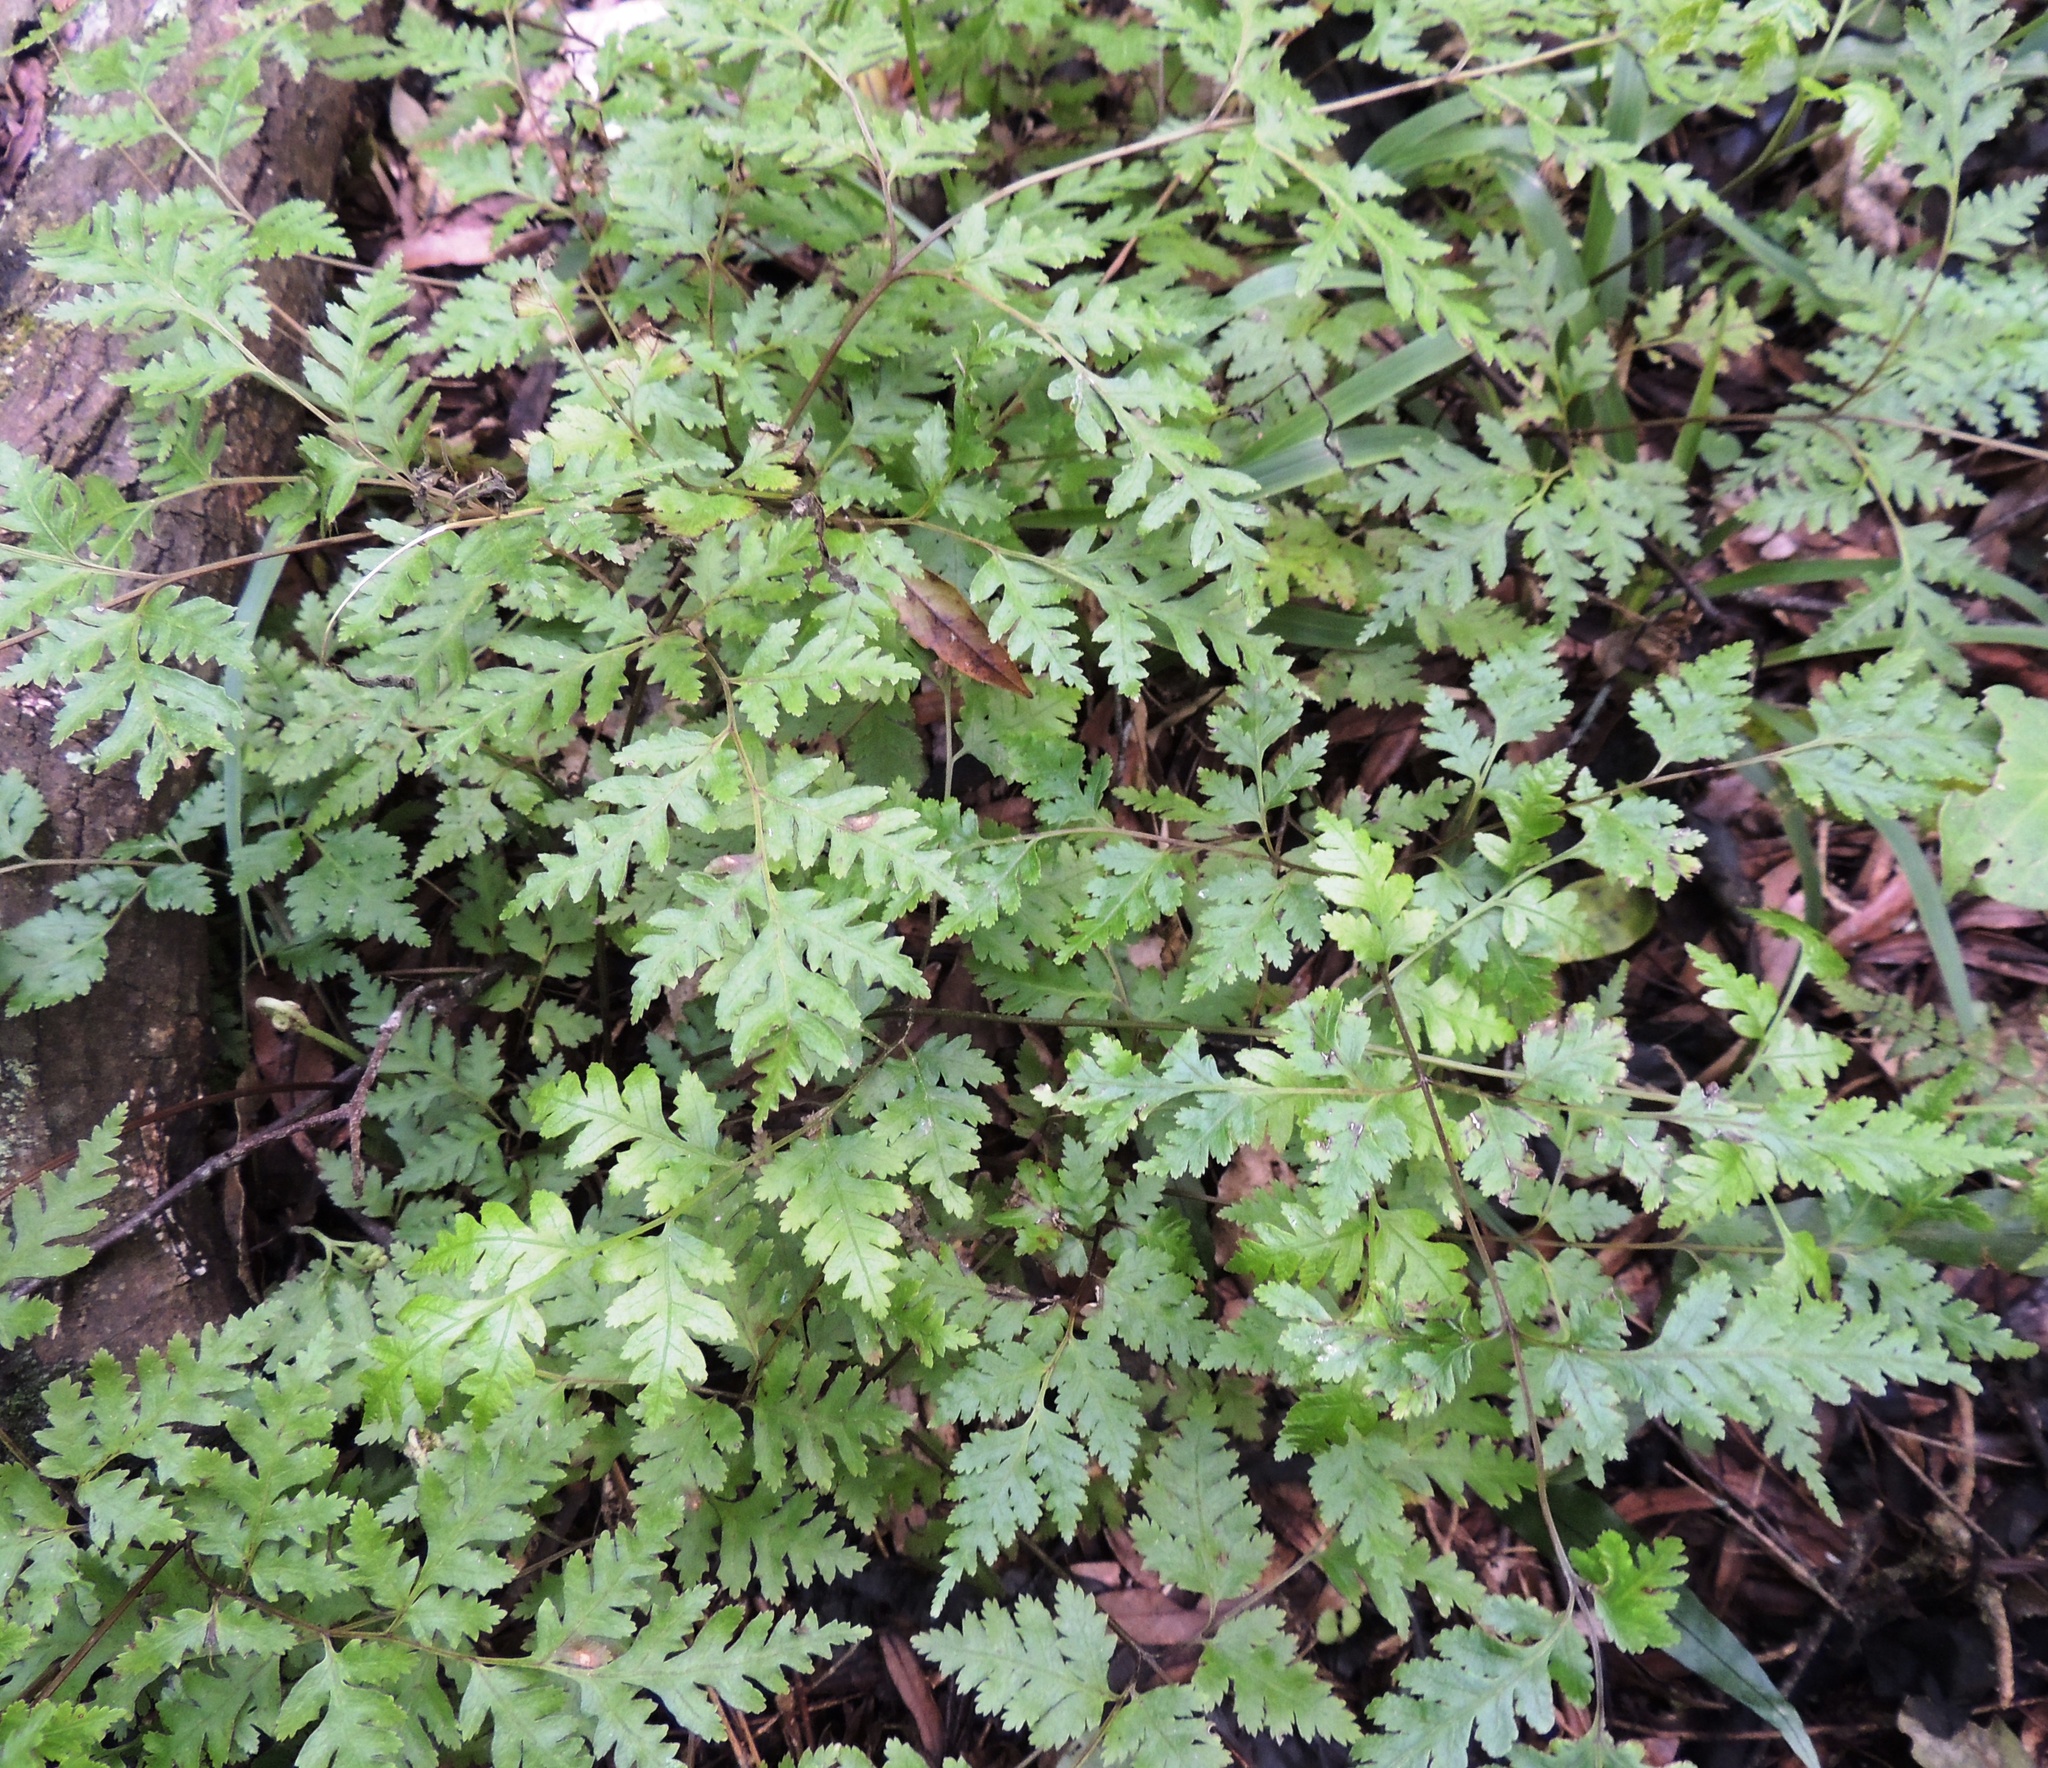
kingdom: Plantae
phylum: Tracheophyta
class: Polypodiopsida
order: Polypodiales
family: Pteridaceae
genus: Pteris
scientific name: Pteris macilenta
